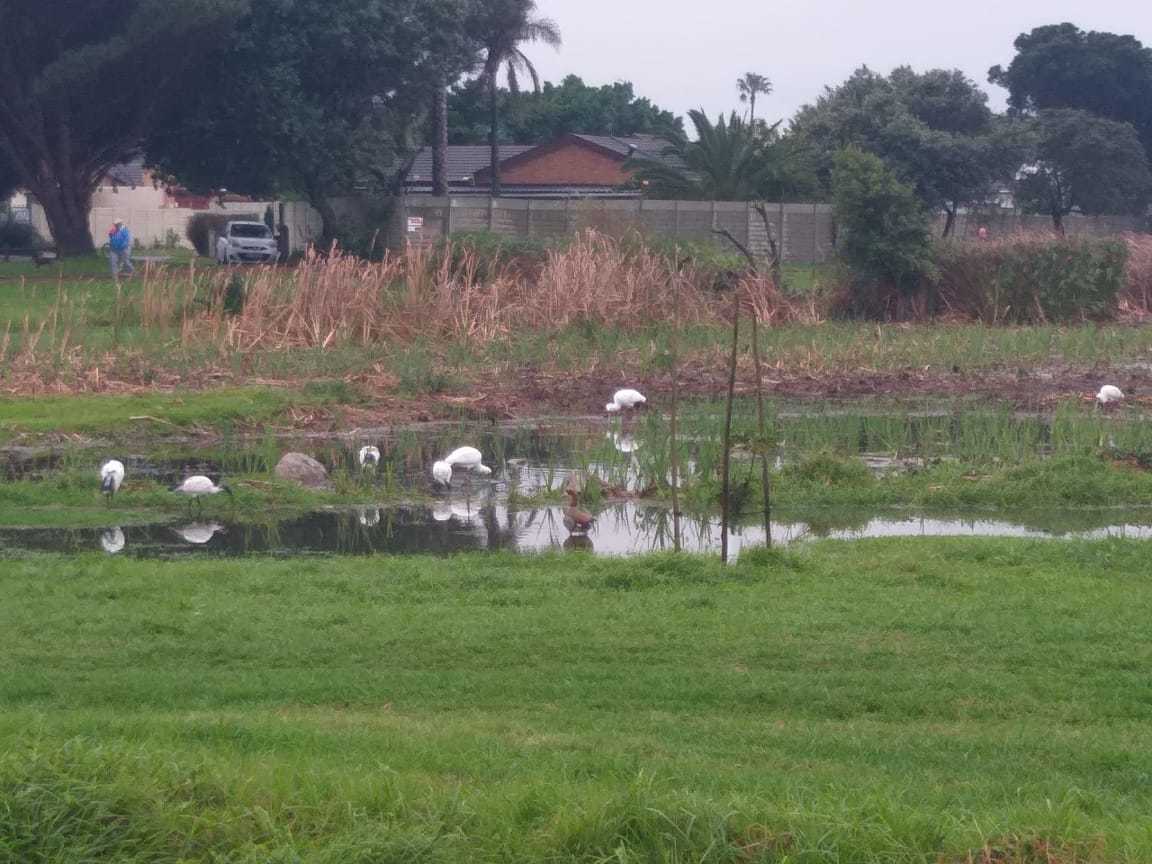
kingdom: Animalia
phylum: Chordata
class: Aves
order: Pelecaniformes
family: Threskiornithidae
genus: Platalea
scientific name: Platalea alba
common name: African spoonbill
